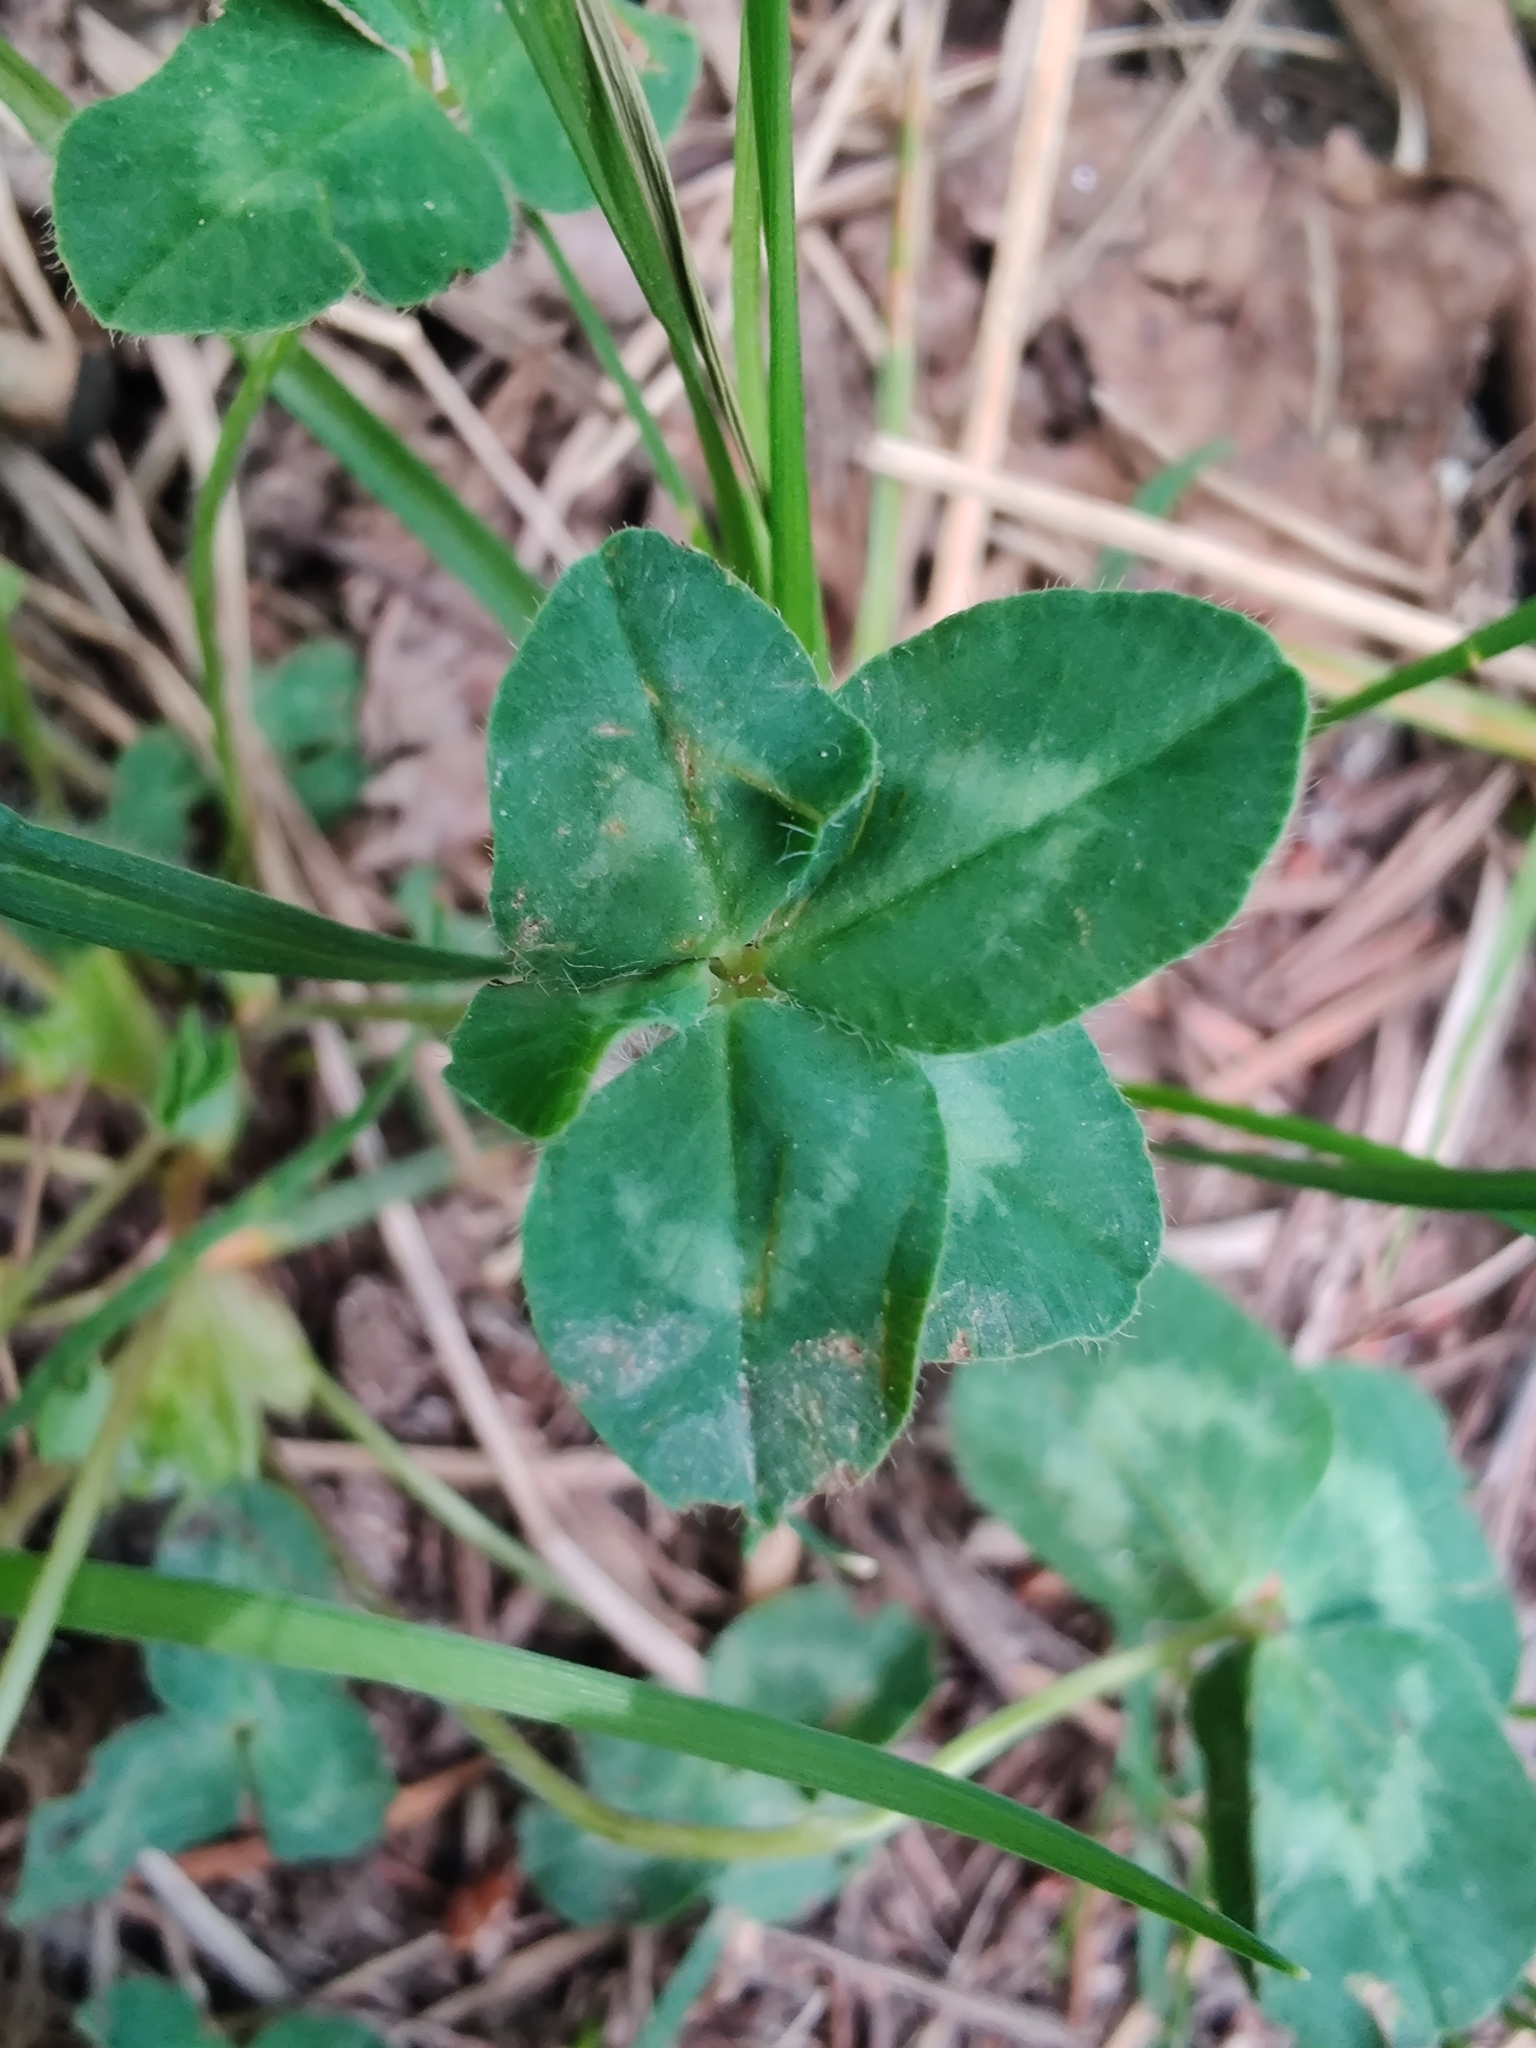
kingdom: Plantae
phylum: Tracheophyta
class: Magnoliopsida
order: Fabales
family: Fabaceae
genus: Trifolium
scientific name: Trifolium pratense
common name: Red clover
